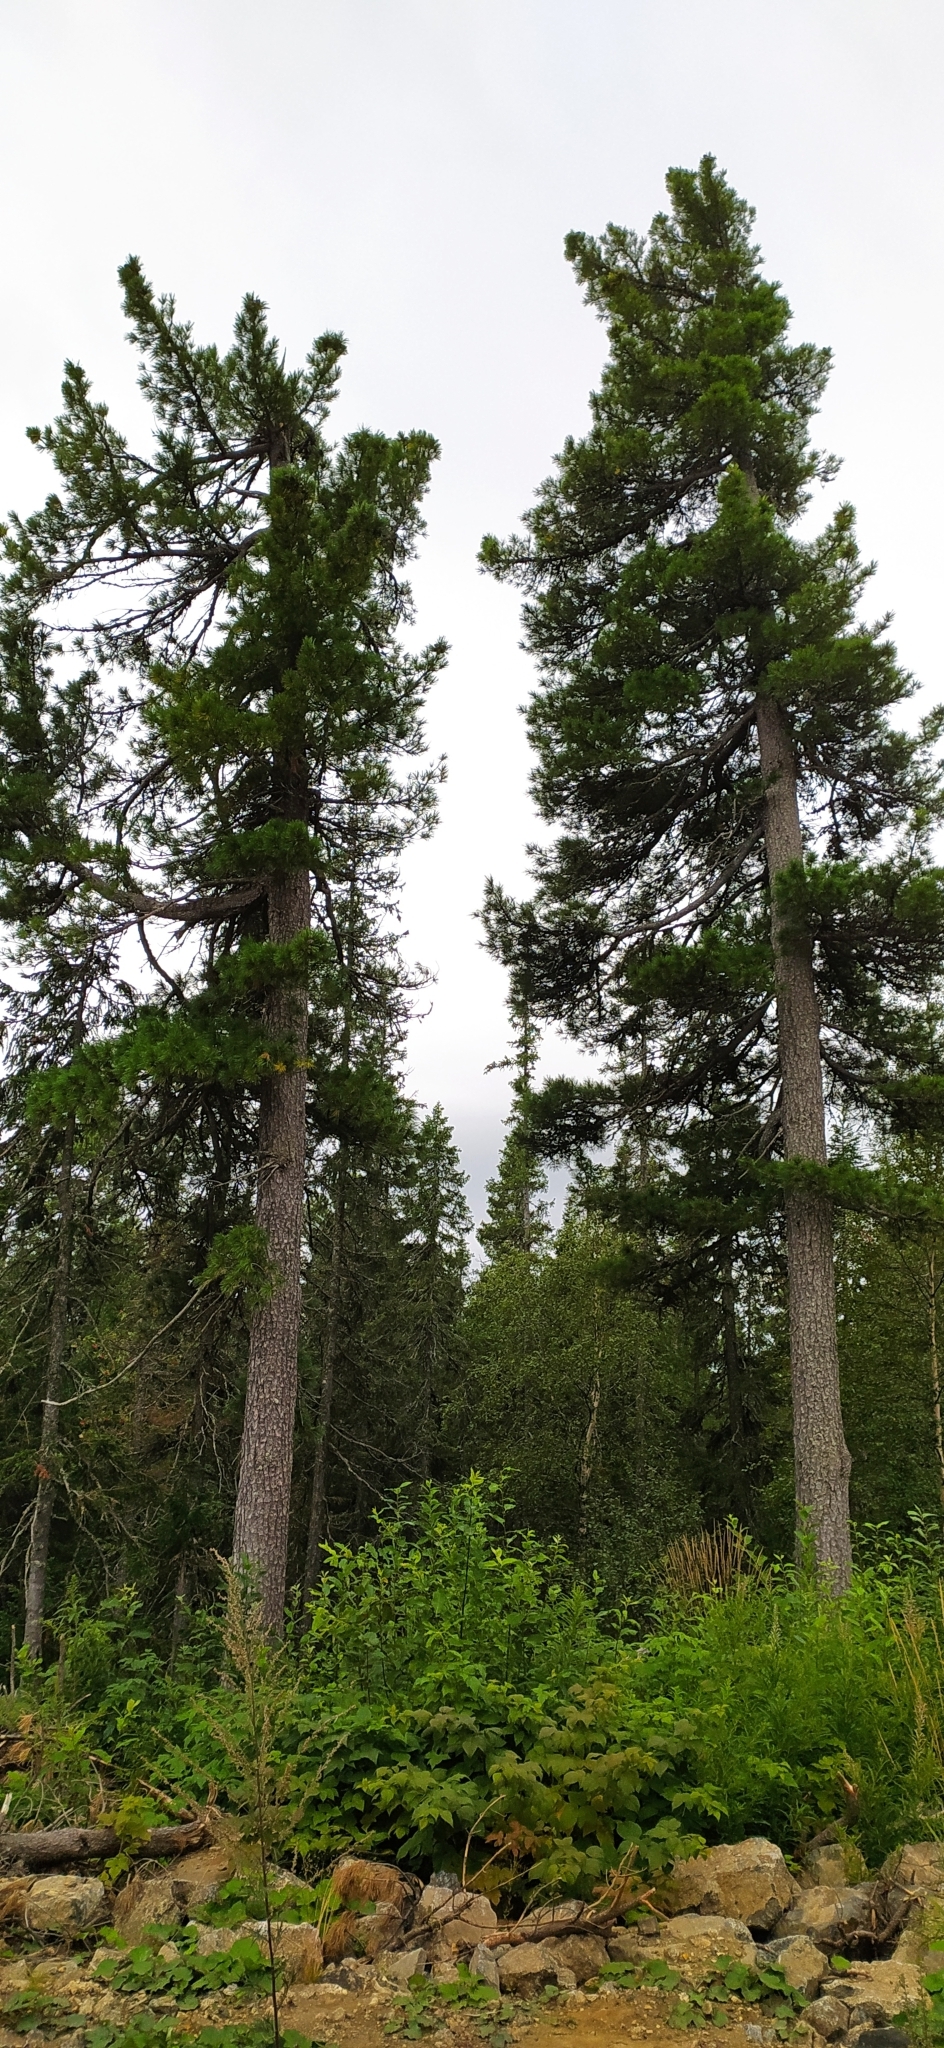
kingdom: Plantae
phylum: Tracheophyta
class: Pinopsida
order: Pinales
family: Pinaceae
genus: Pinus
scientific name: Pinus sibirica
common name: Siberian pine
